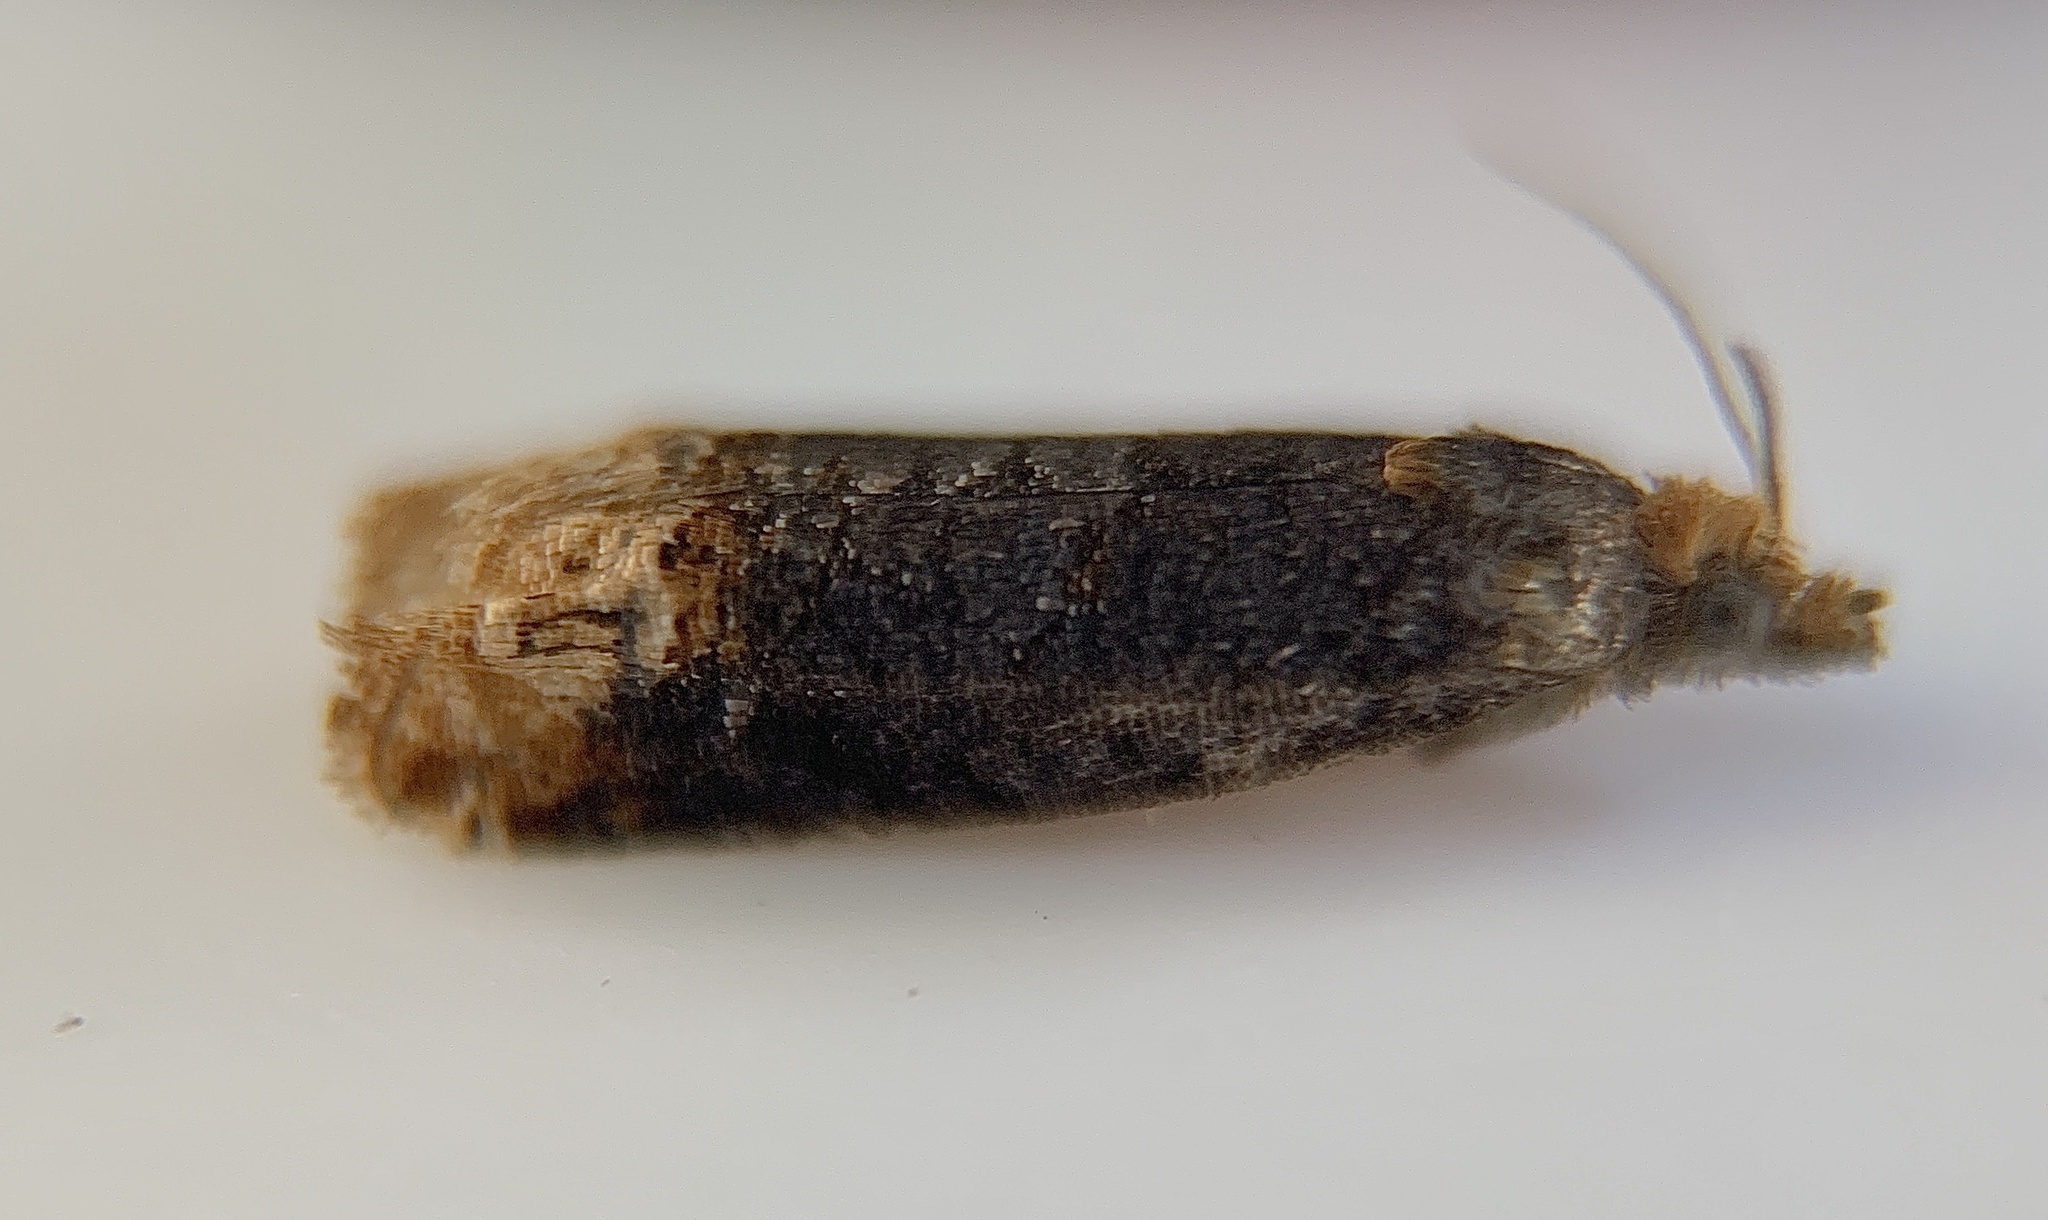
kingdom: Animalia
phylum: Arthropoda
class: Insecta
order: Lepidoptera
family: Tortricidae
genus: Eucosma
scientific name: Eucosma ochroterminana
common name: Buff-tipped eucosma moth
